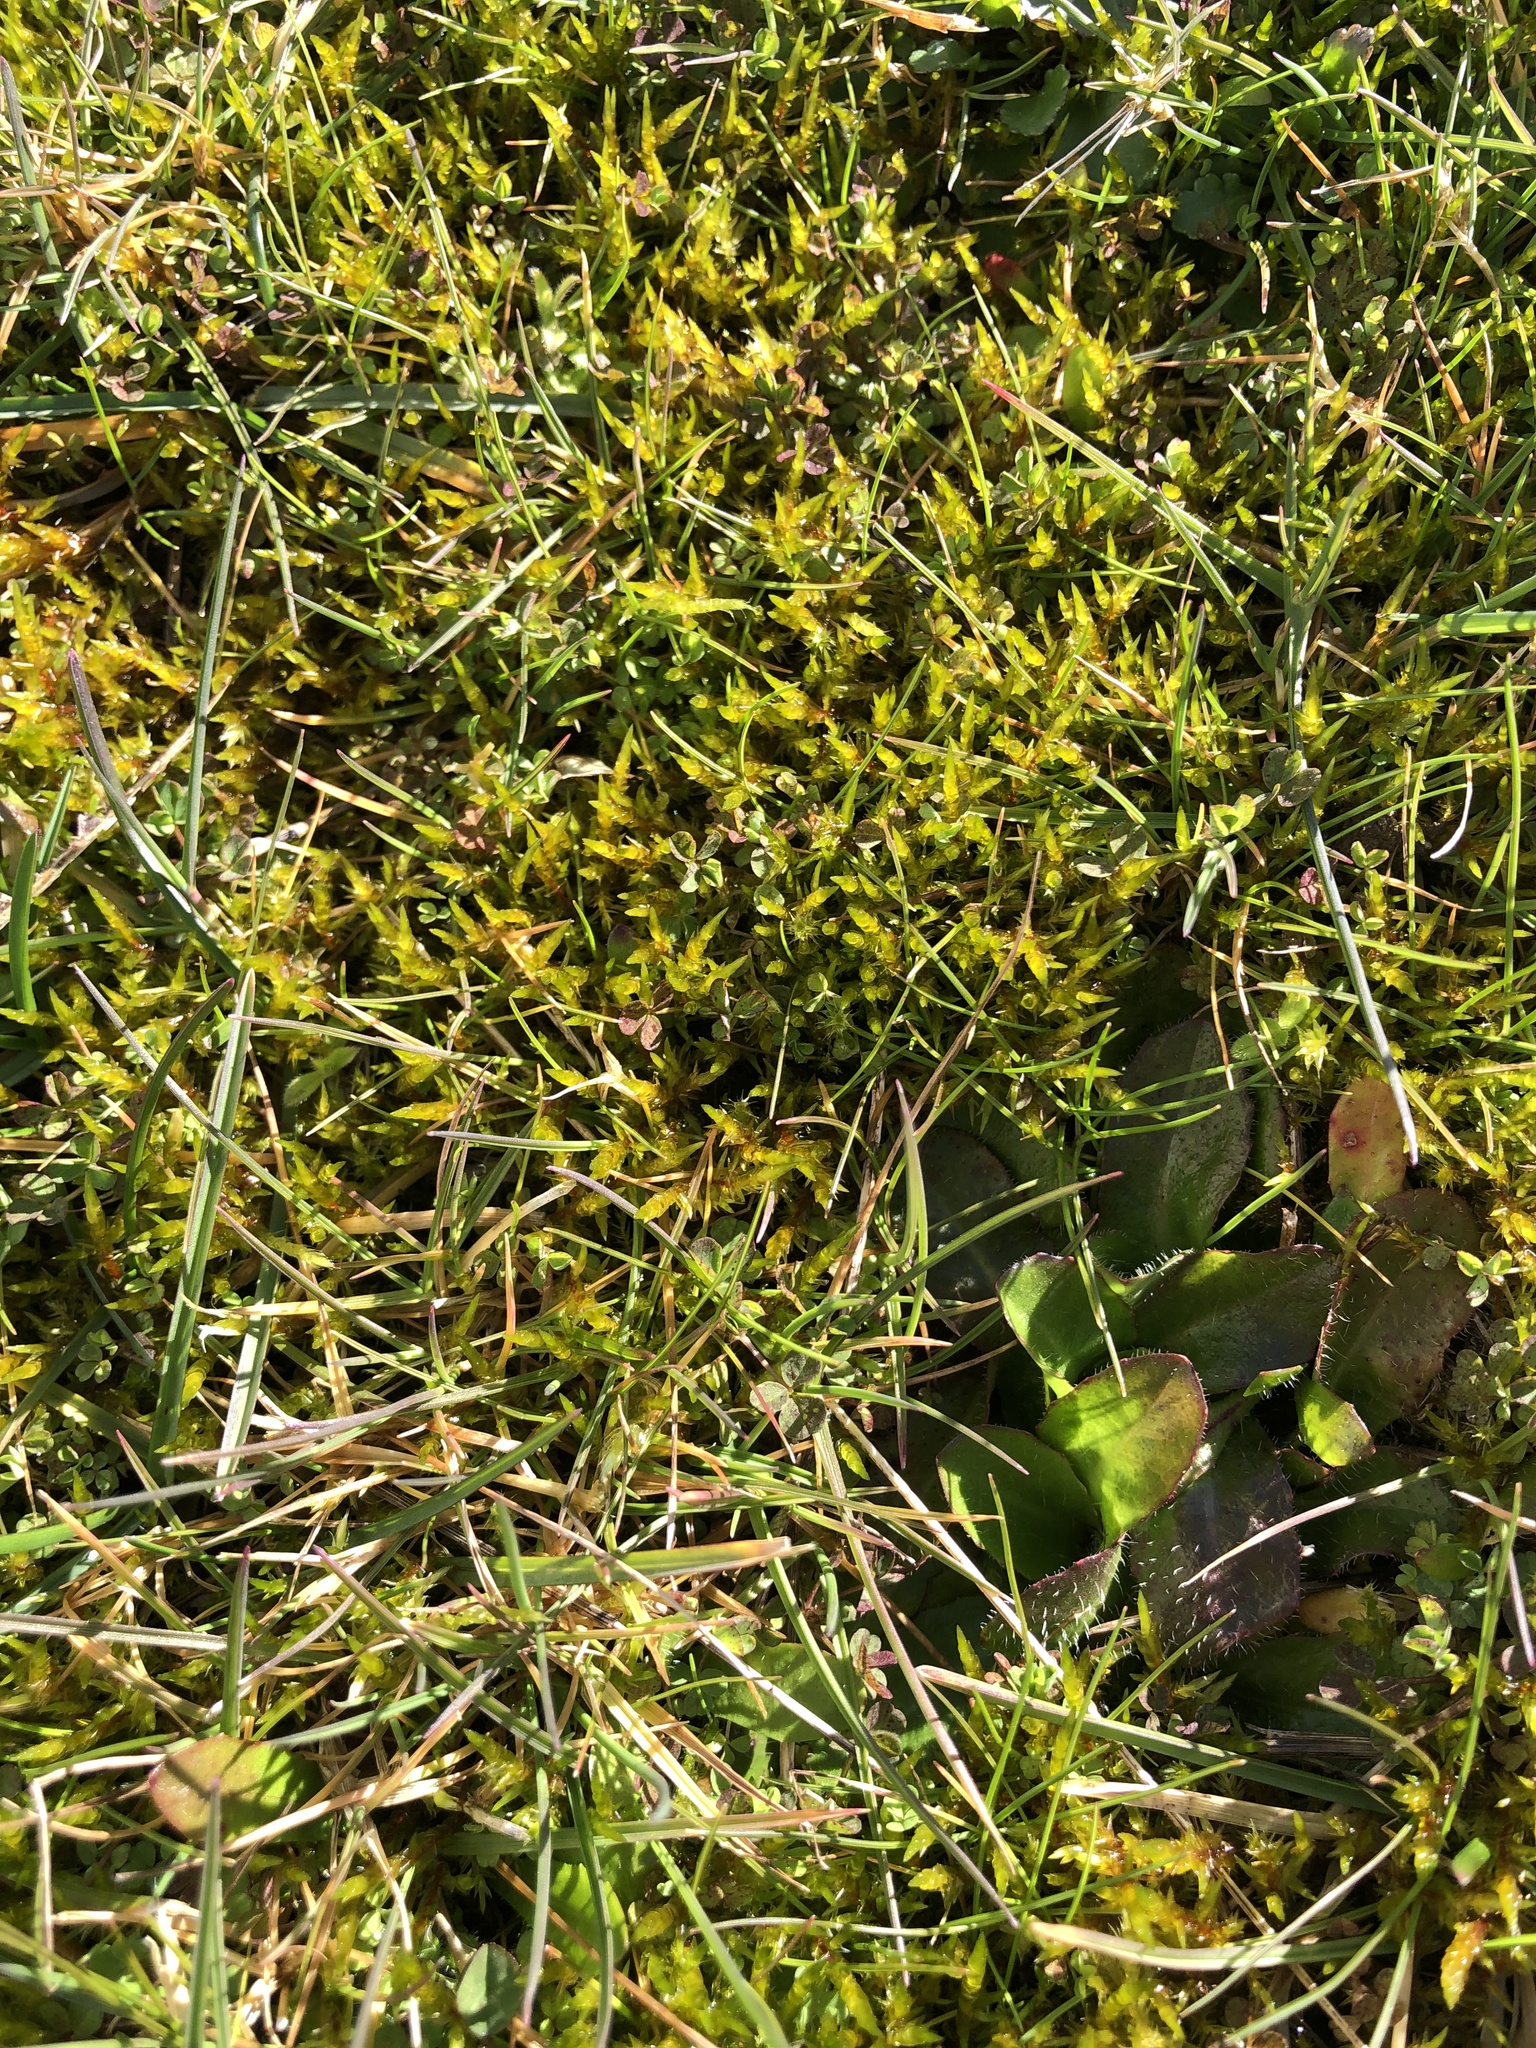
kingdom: Plantae
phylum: Bryophyta
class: Bryopsida
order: Hypnales
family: Pylaisiaceae
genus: Calliergonella
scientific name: Calliergonella cuspidata
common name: Common large wetland moss
